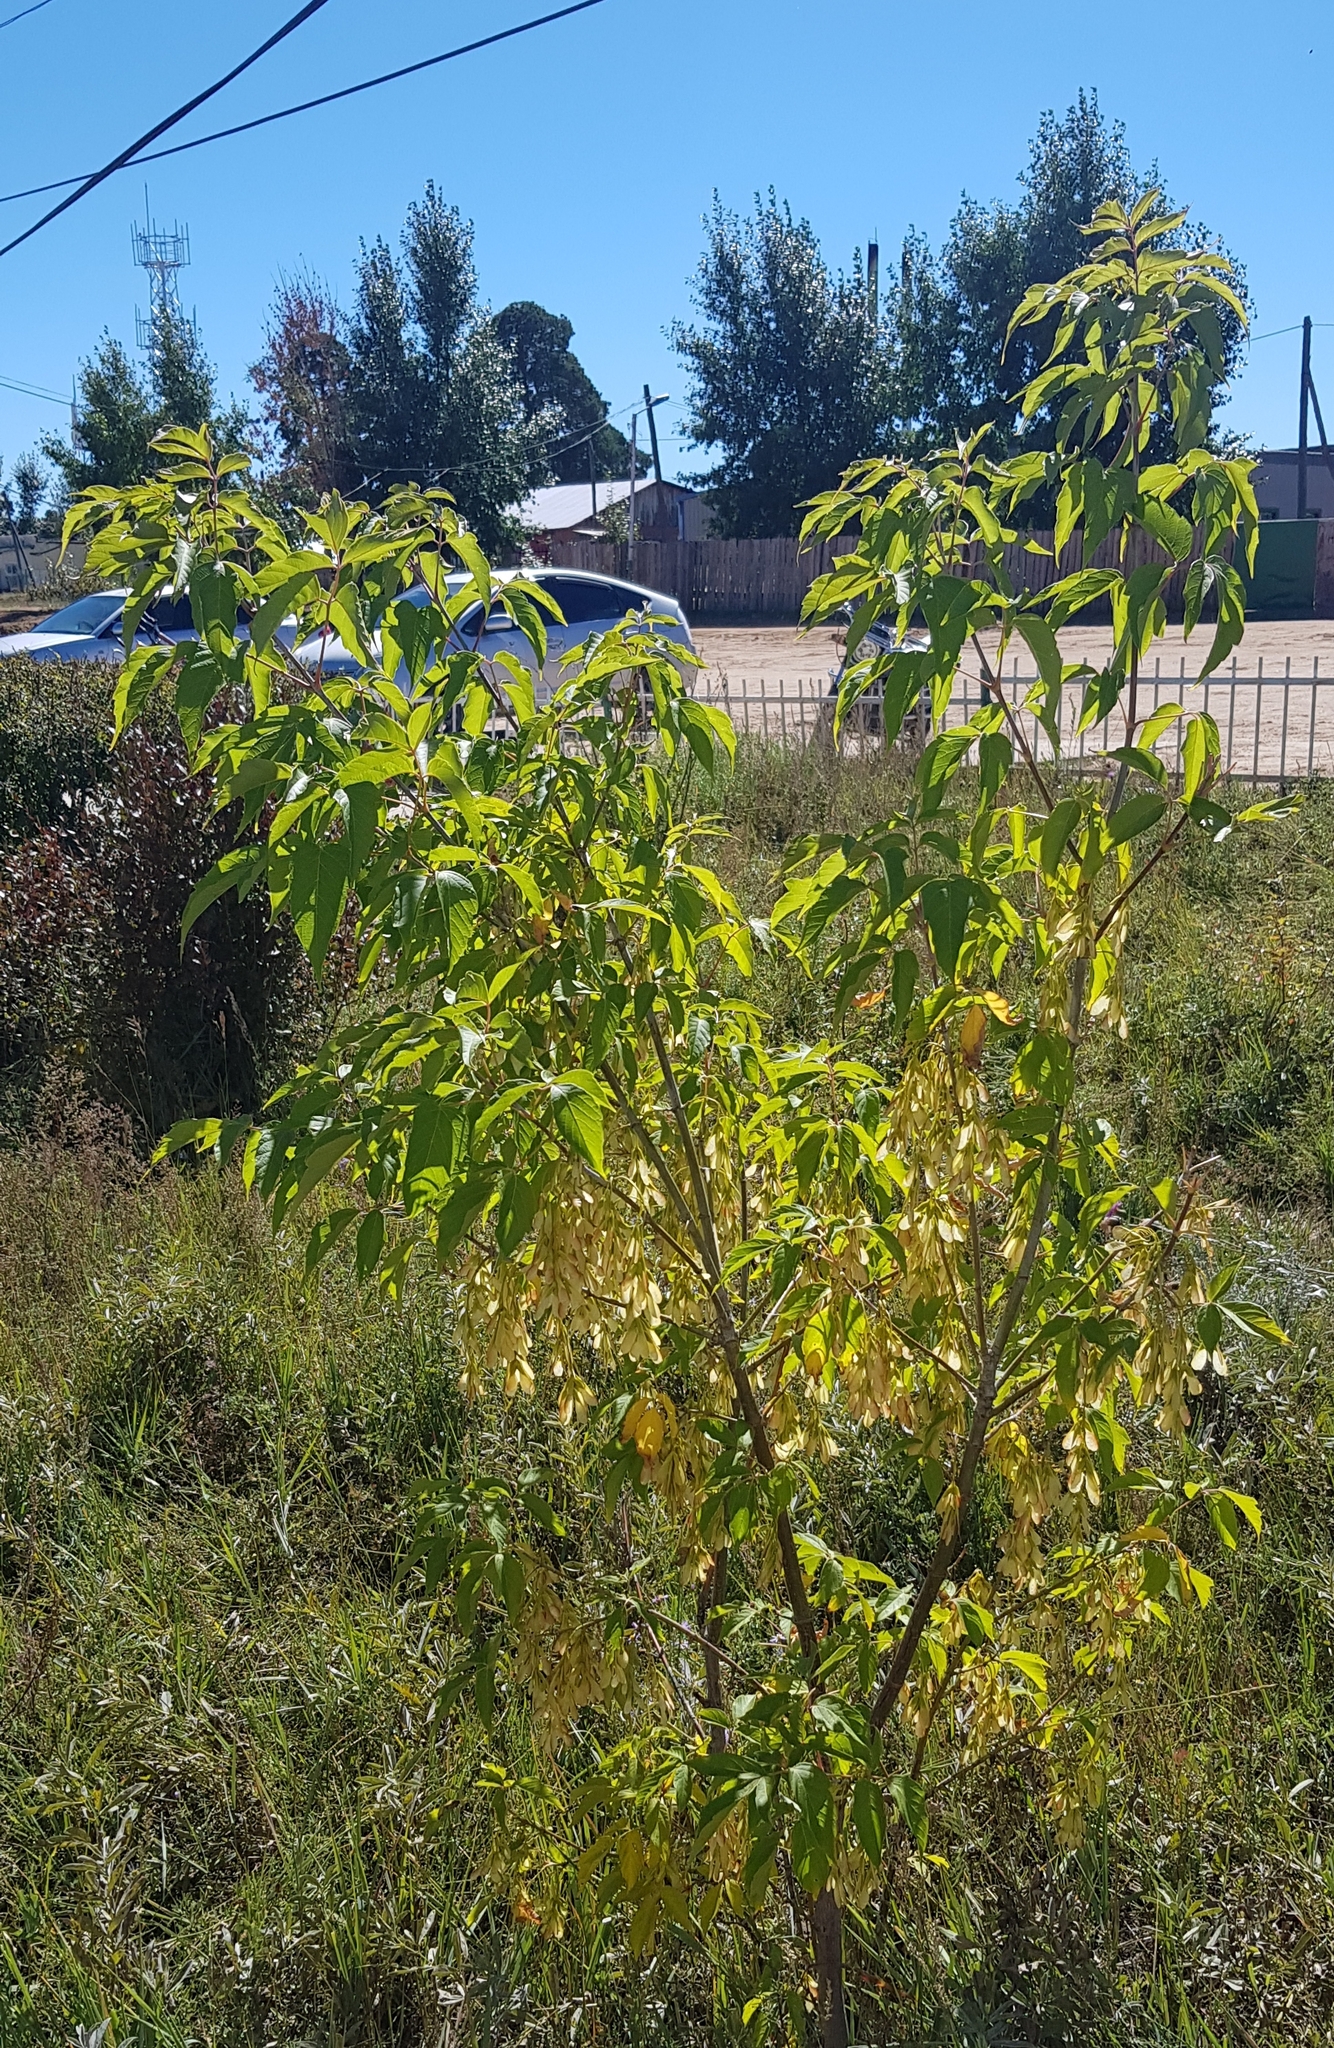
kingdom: Plantae
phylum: Tracheophyta
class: Magnoliopsida
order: Sapindales
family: Sapindaceae
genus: Acer
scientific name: Acer negundo
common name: Ashleaf maple
